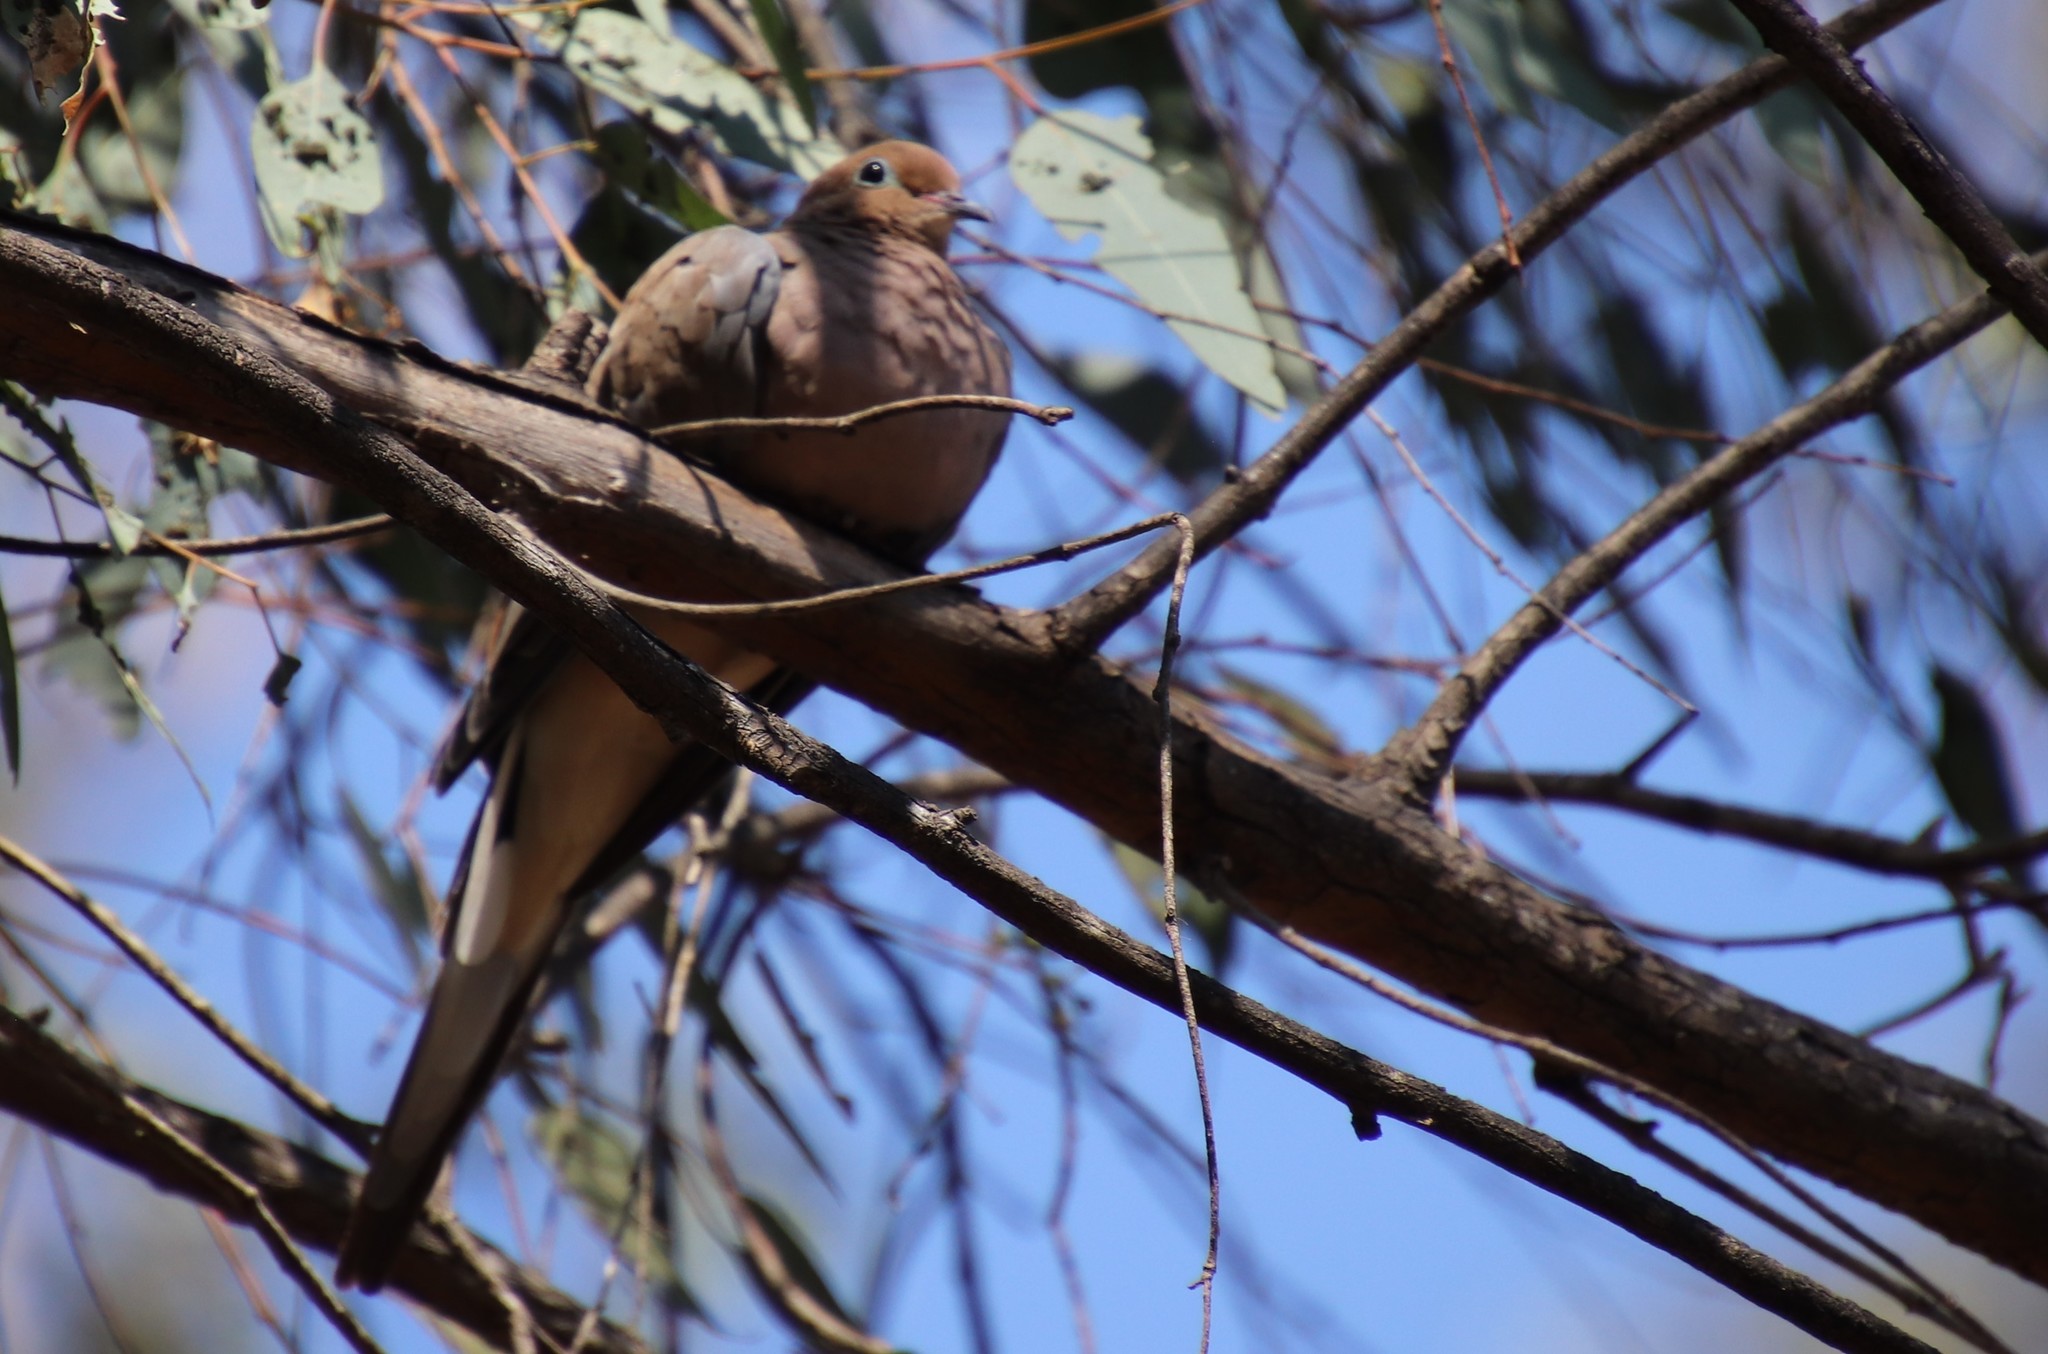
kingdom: Animalia
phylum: Chordata
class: Aves
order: Columbiformes
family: Columbidae
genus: Zenaida
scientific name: Zenaida macroura
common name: Mourning dove
